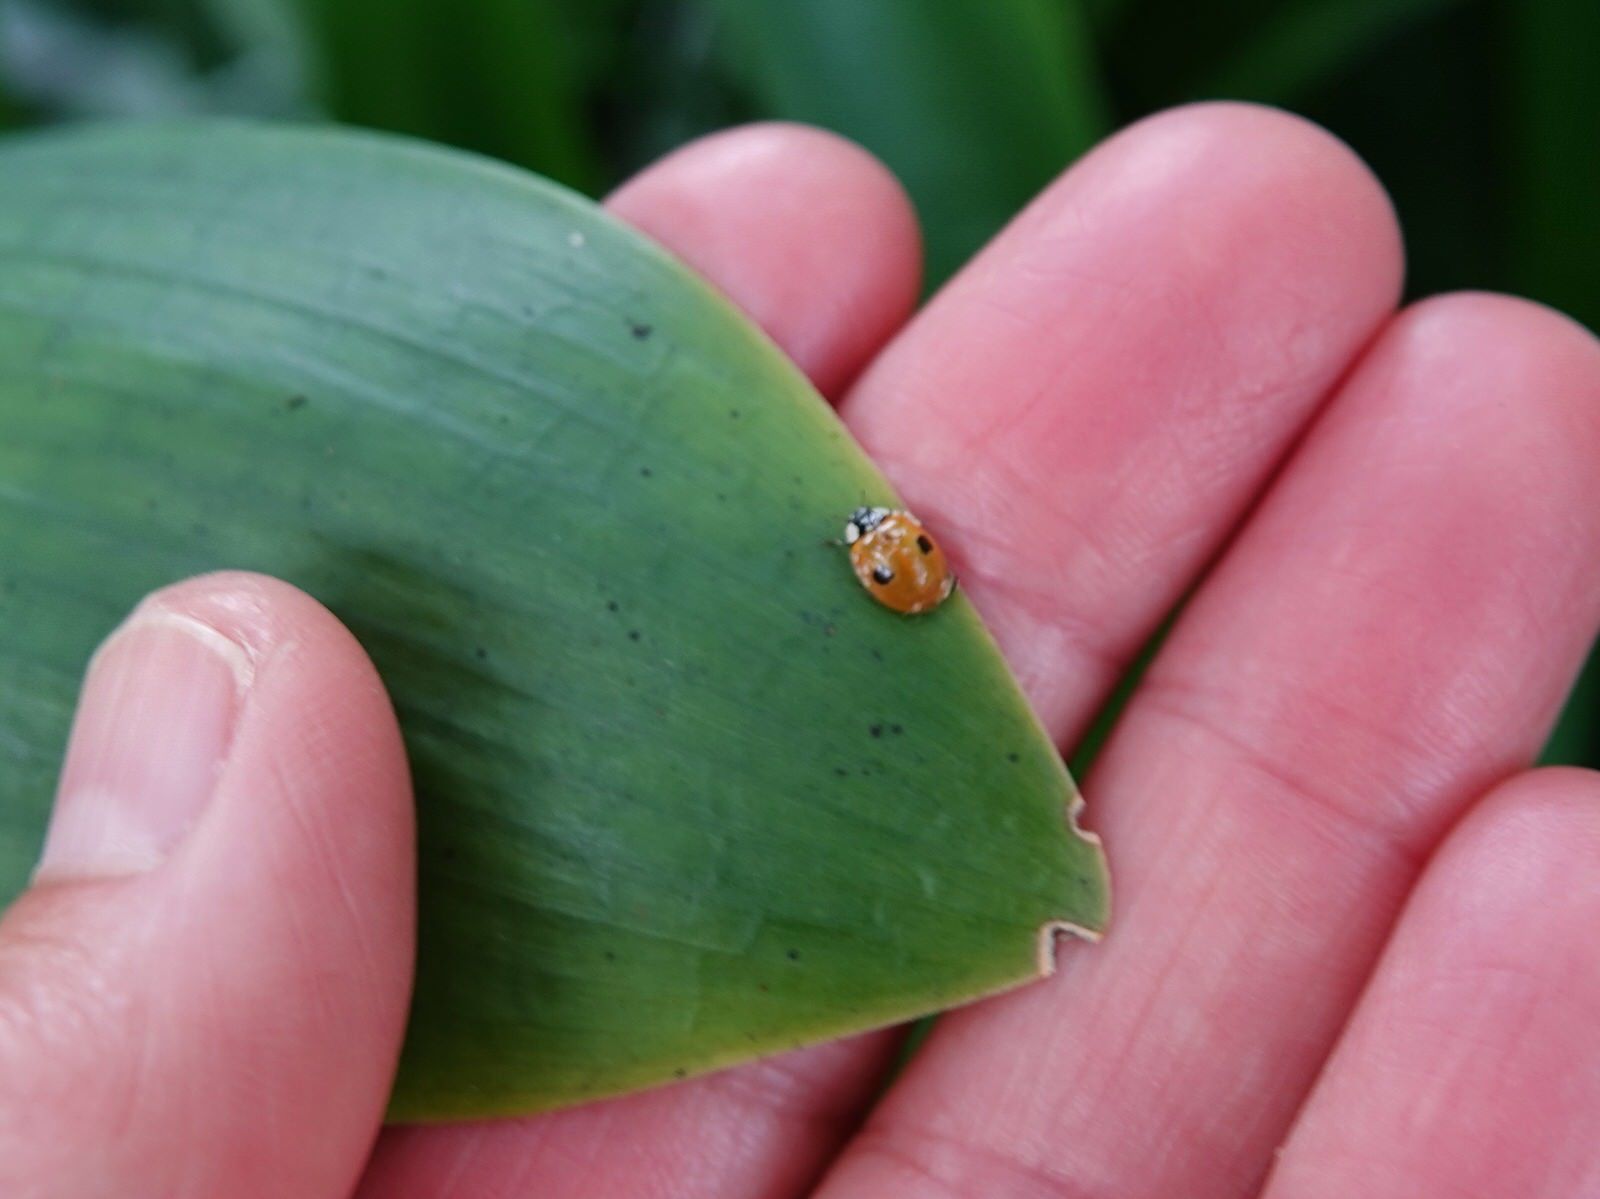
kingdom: Animalia
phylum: Arthropoda
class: Insecta
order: Coleoptera
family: Coccinellidae
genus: Adalia
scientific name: Adalia bipunctata
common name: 2-spot ladybird
